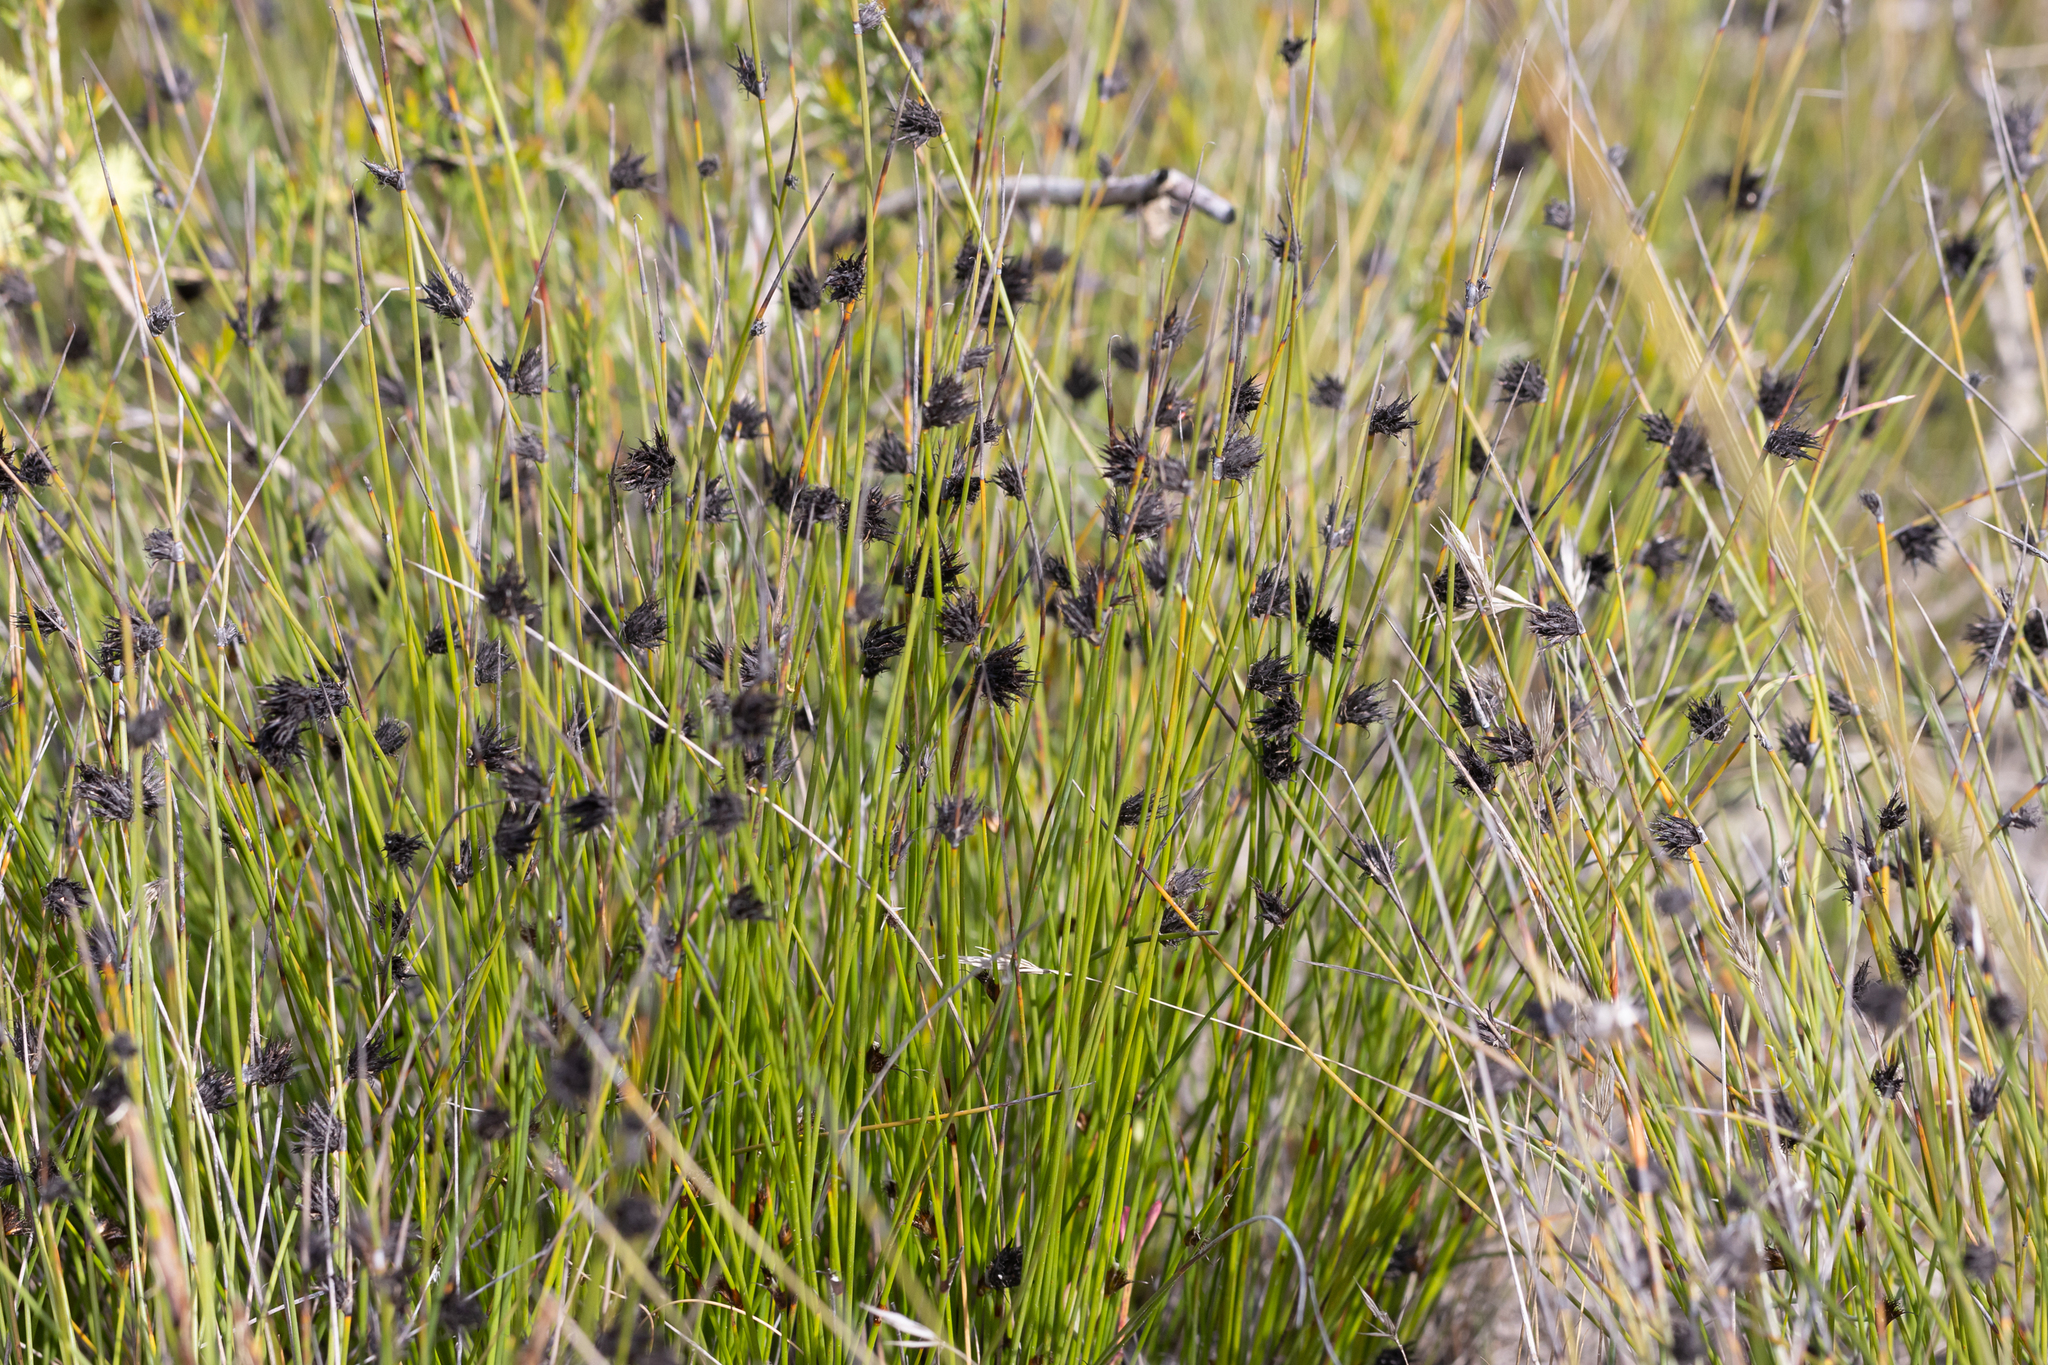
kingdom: Plantae
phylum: Tracheophyta
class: Liliopsida
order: Poales
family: Cyperaceae
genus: Mesomelaena
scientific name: Mesomelaena stygia
